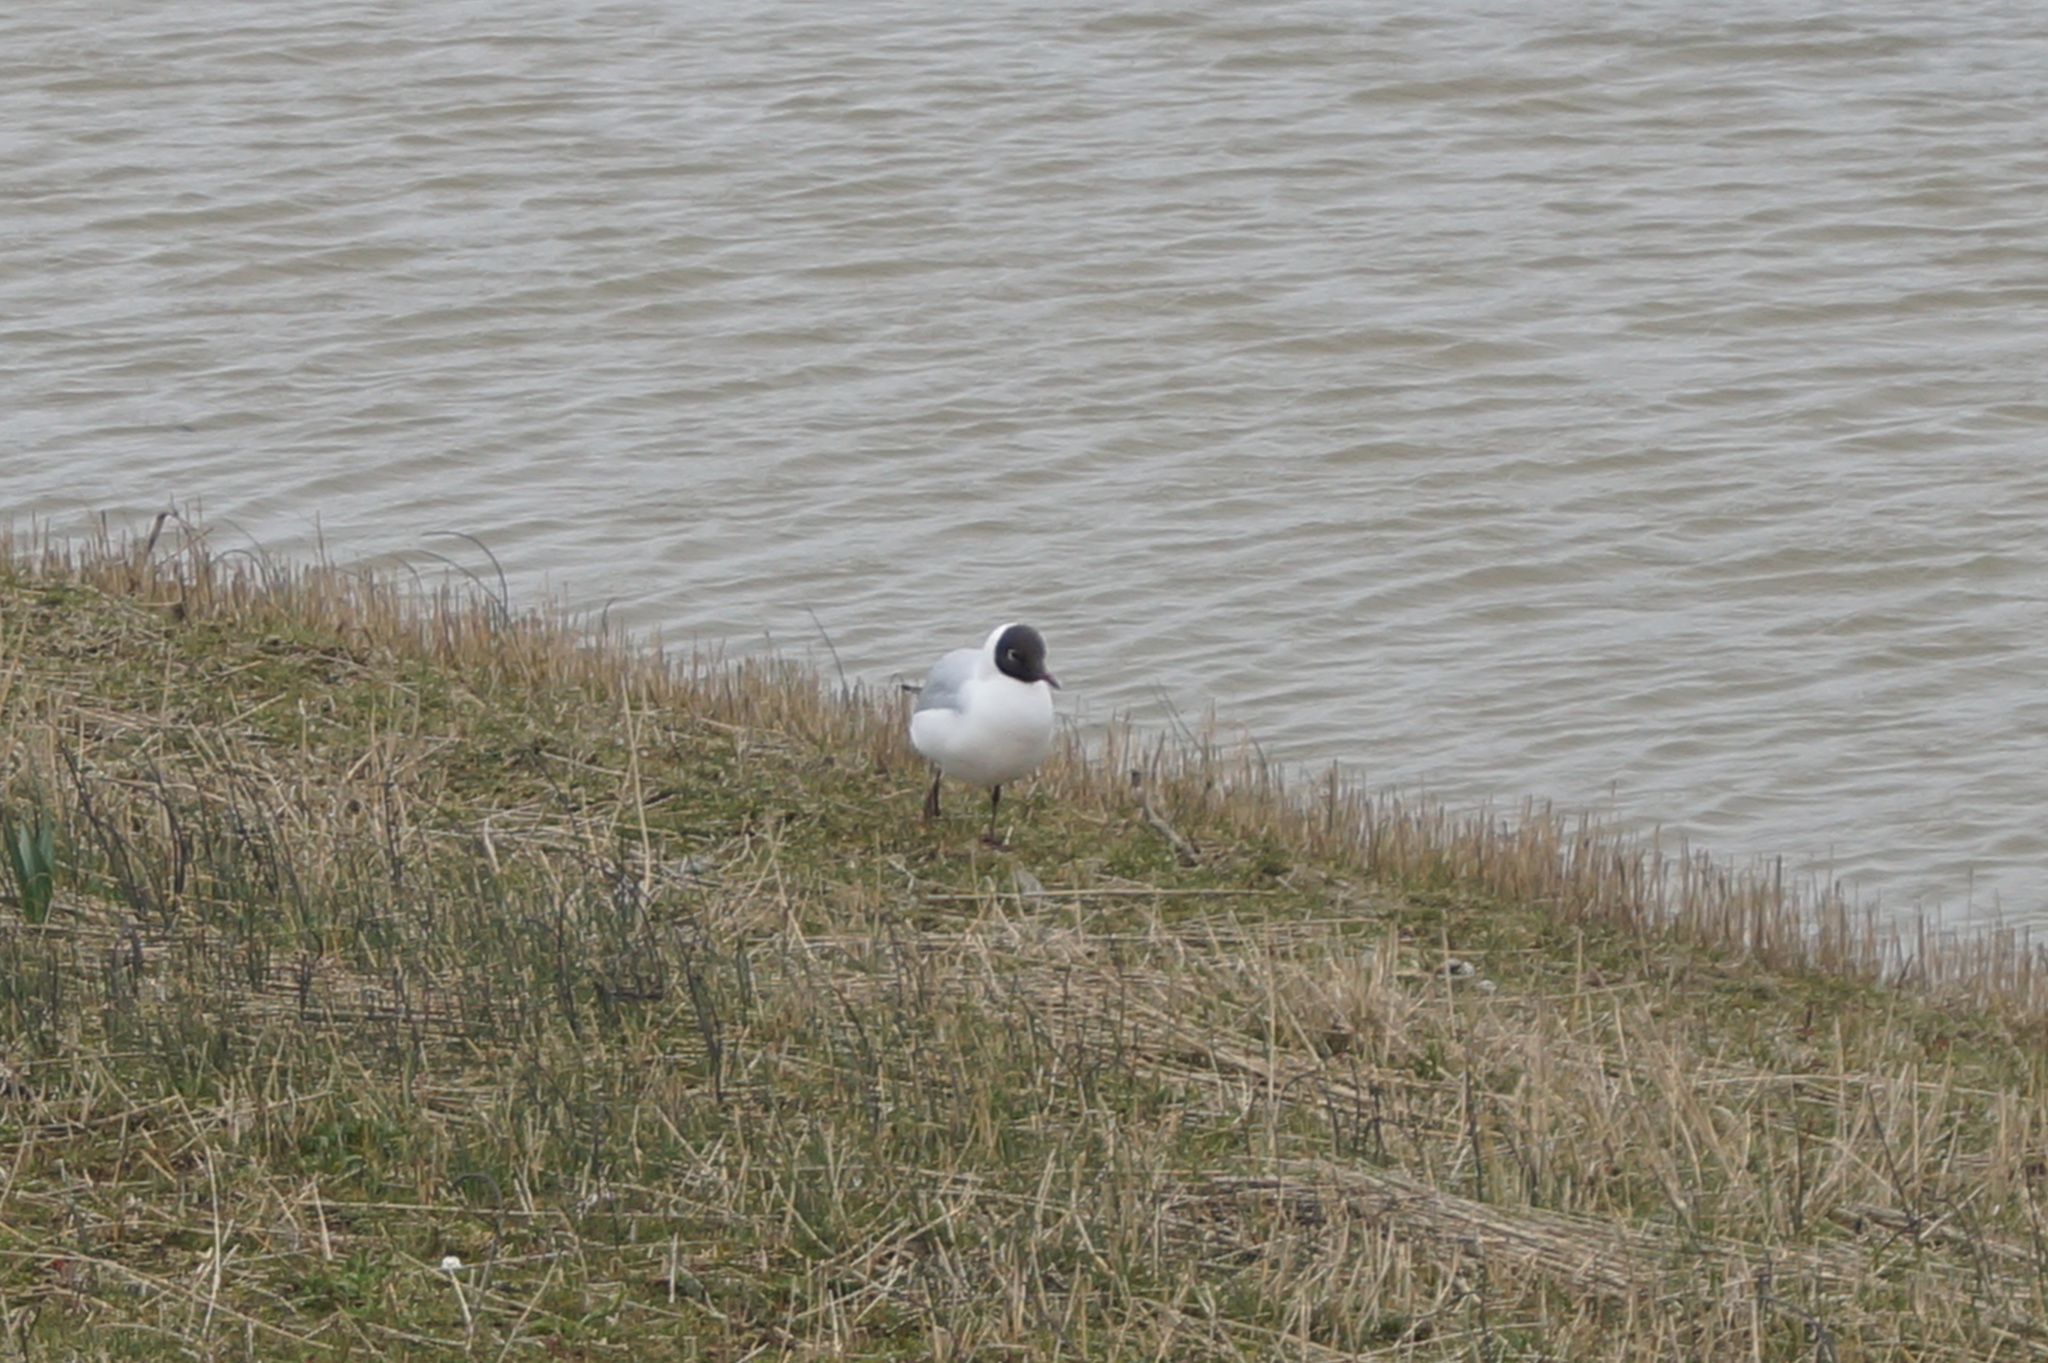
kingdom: Animalia
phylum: Chordata
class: Aves
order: Charadriiformes
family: Laridae
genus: Chroicocephalus
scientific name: Chroicocephalus ridibundus
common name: Black-headed gull
